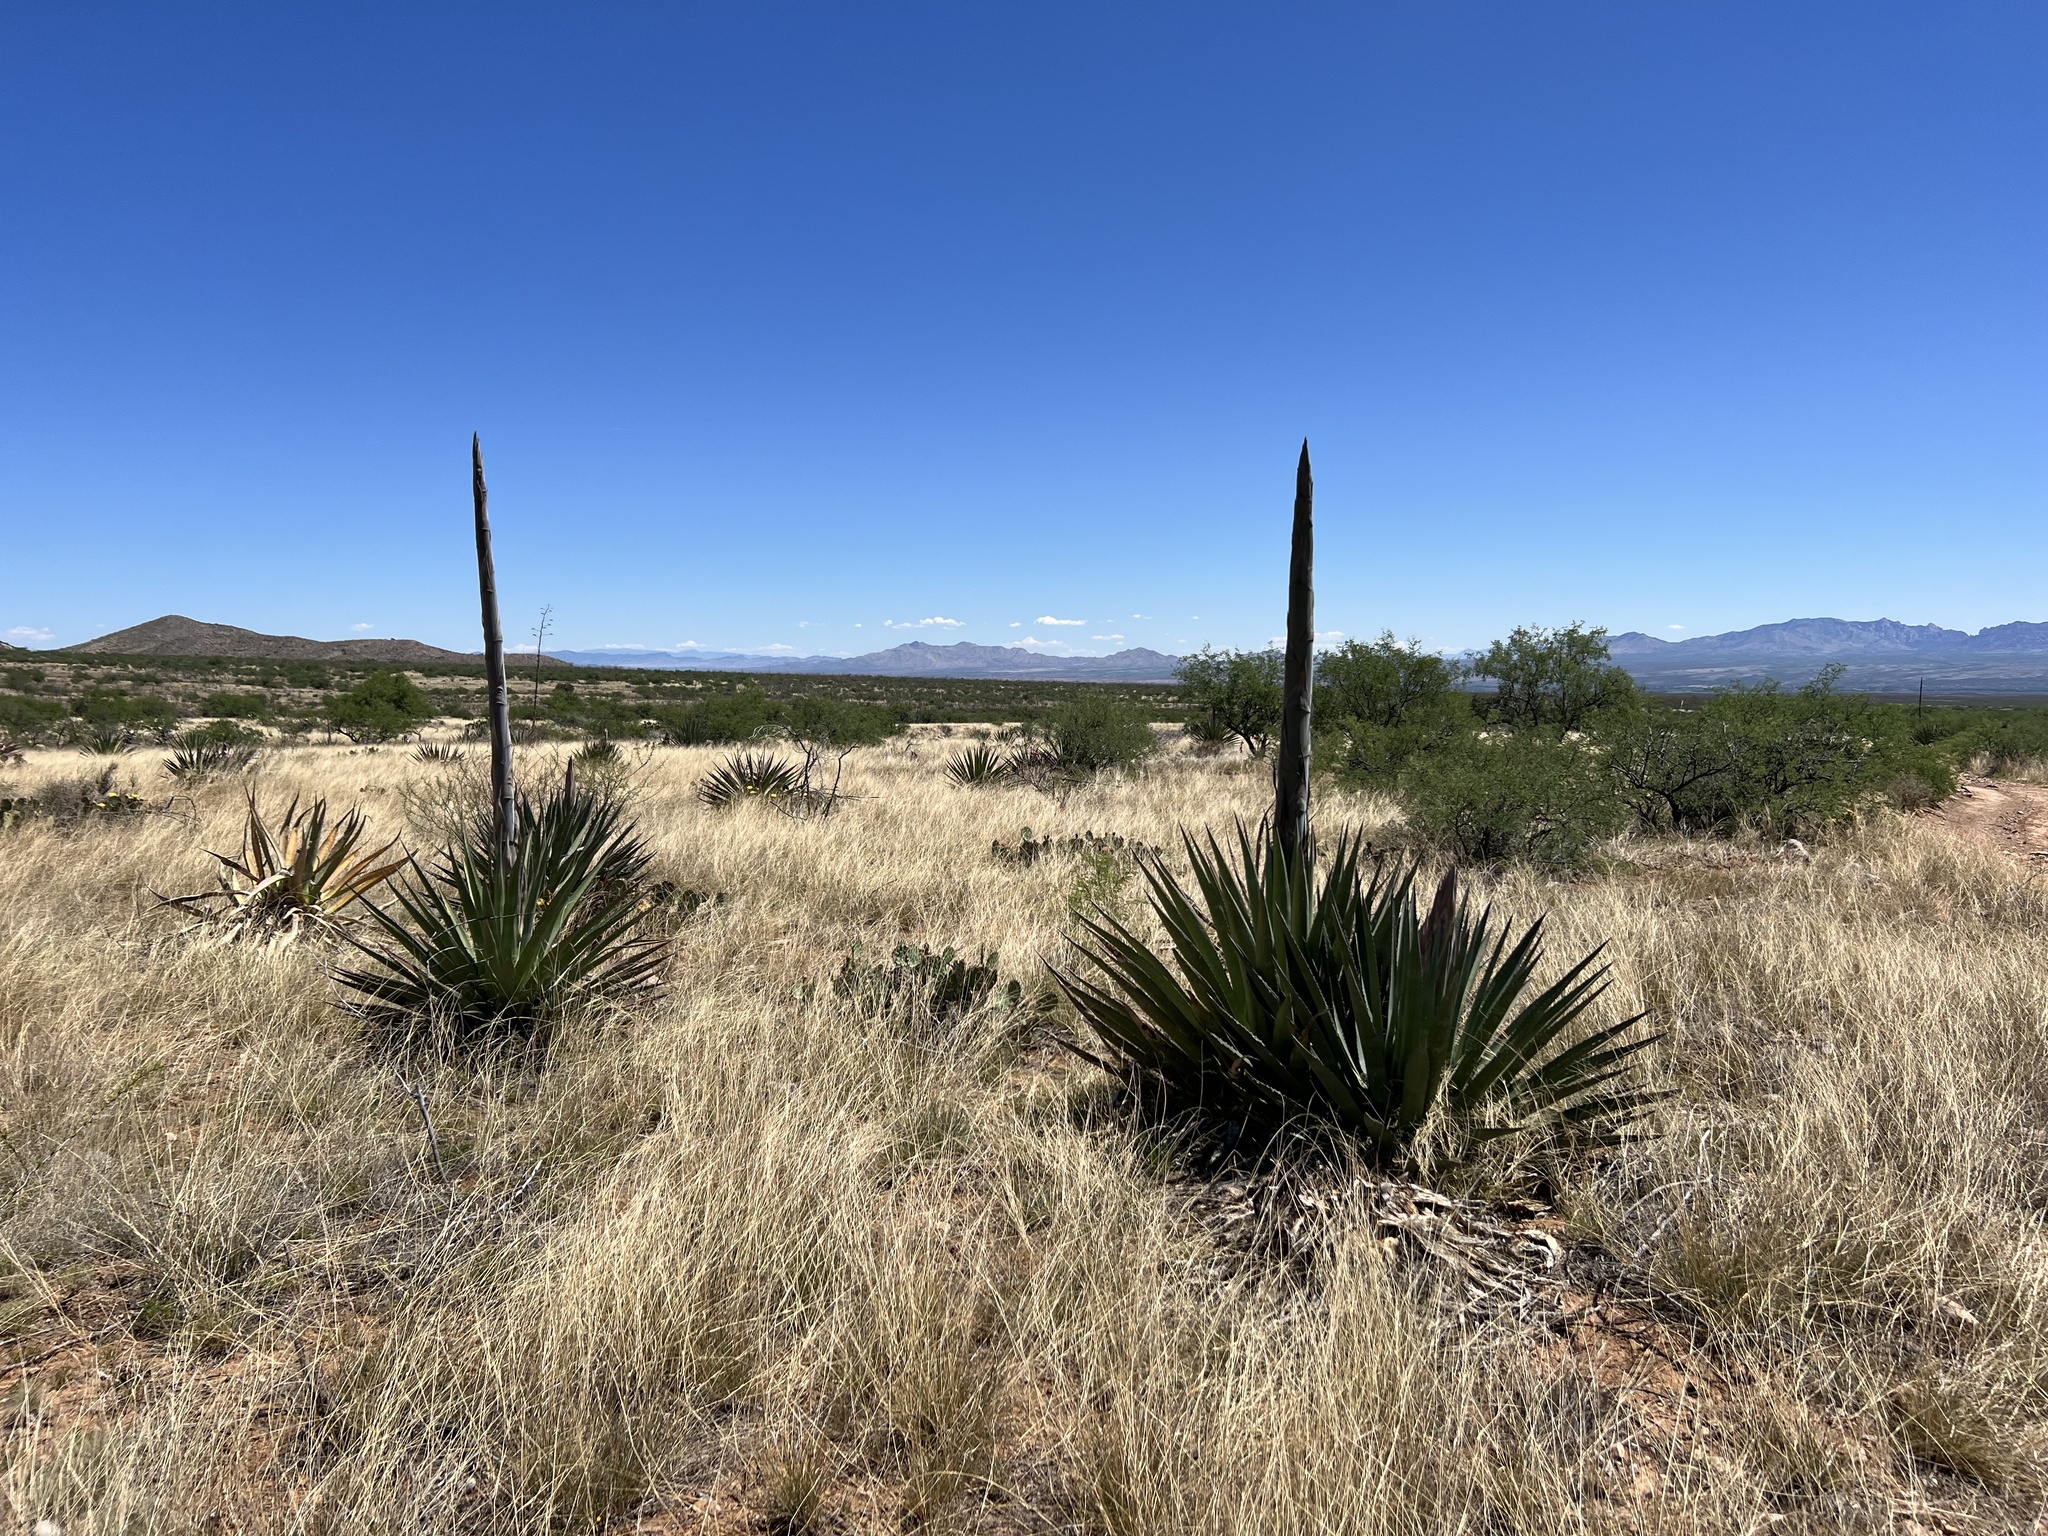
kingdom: Plantae
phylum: Tracheophyta
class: Liliopsida
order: Asparagales
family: Asparagaceae
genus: Agave
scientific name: Agave palmeri
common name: Palmer agave
